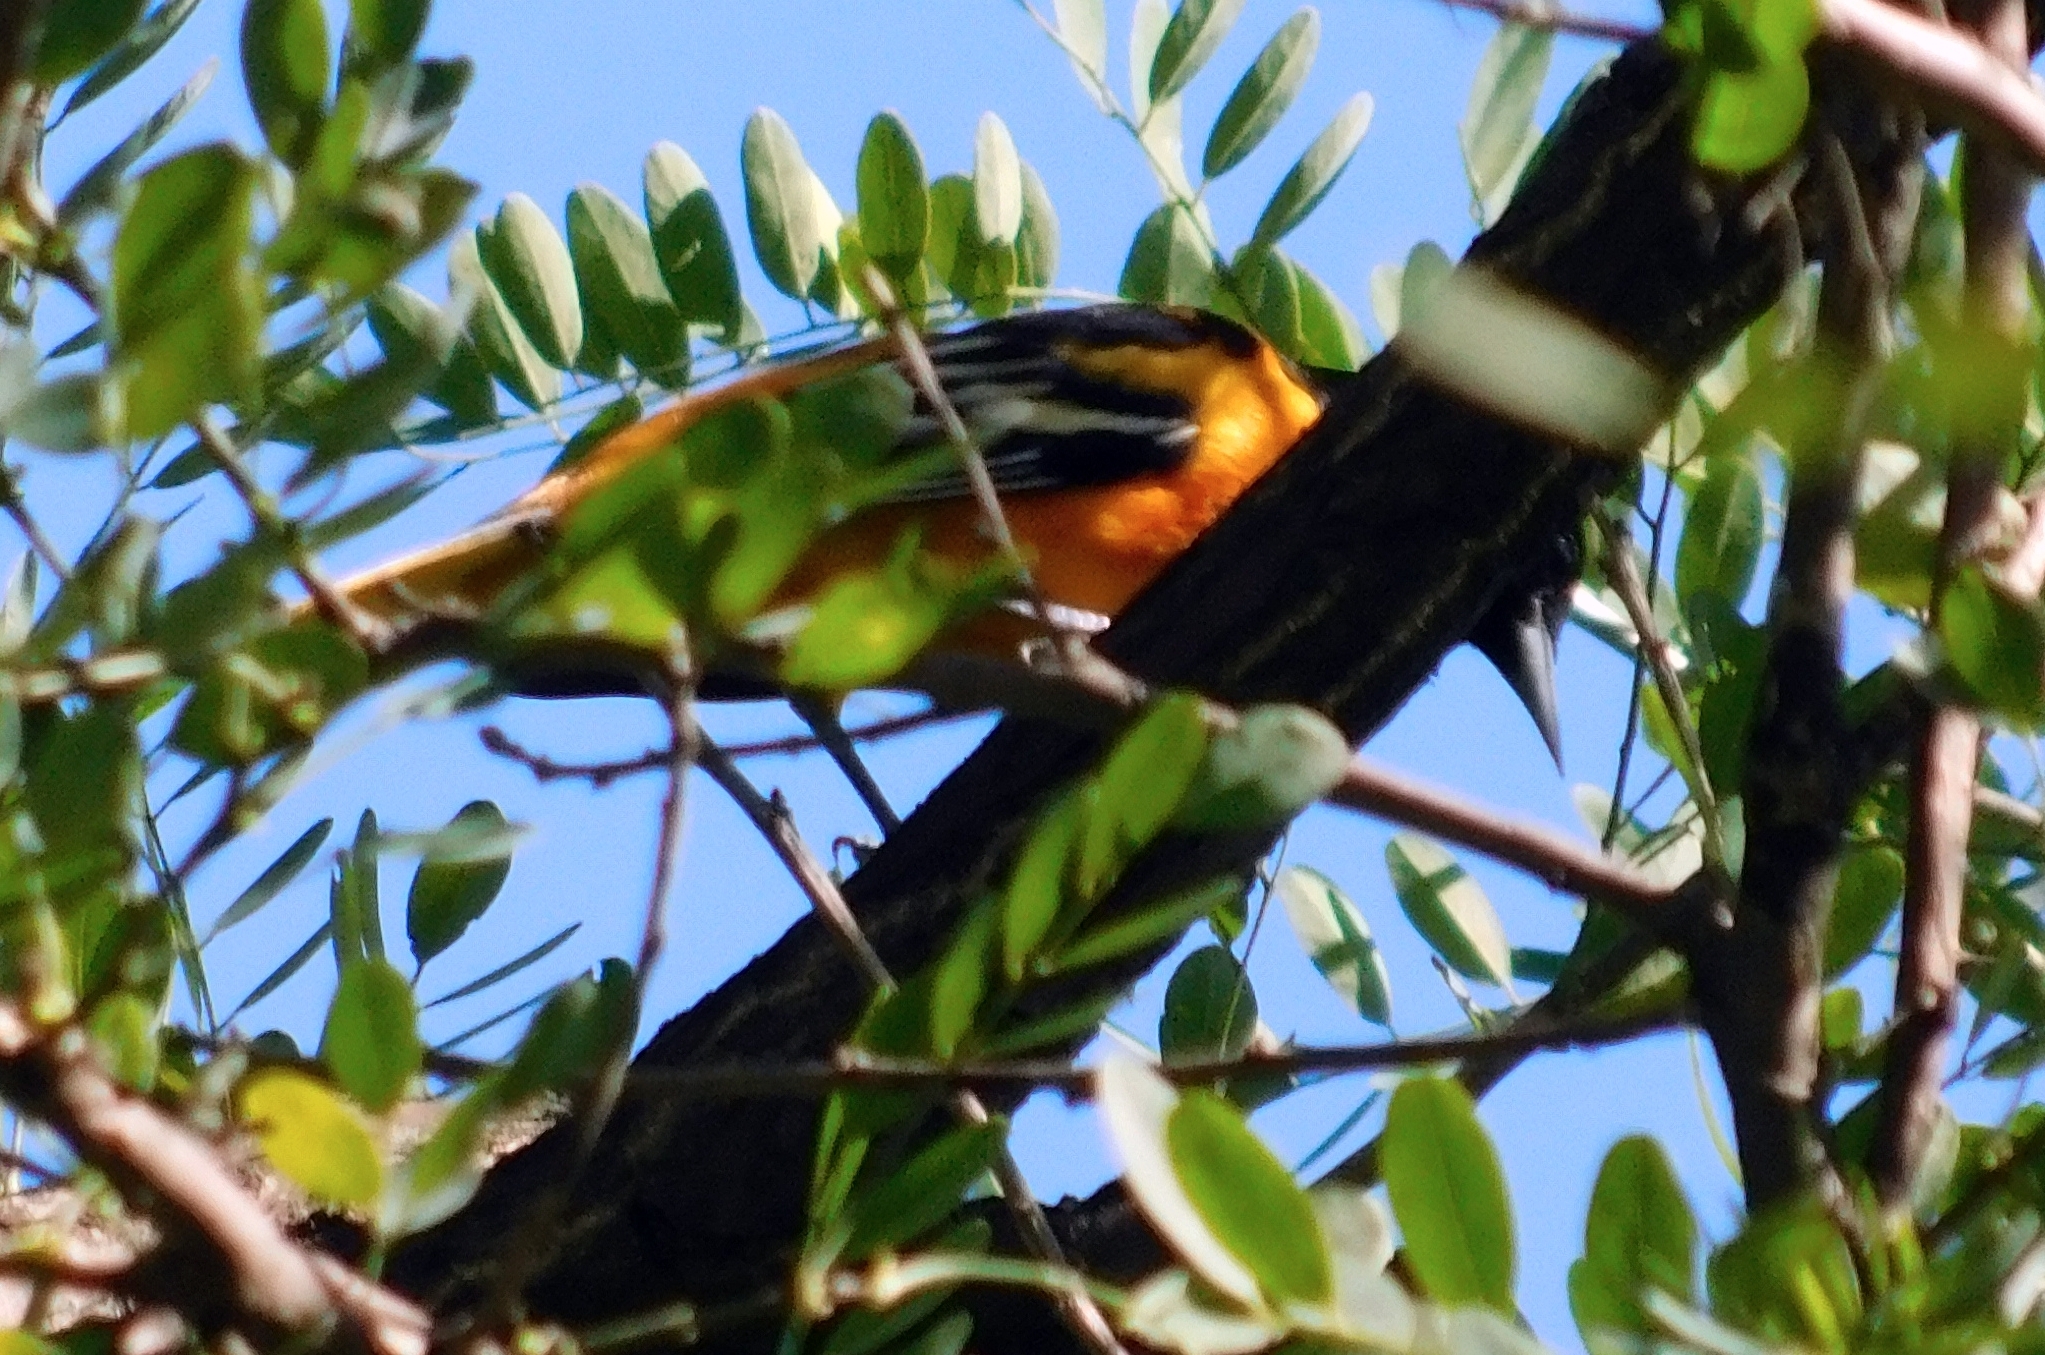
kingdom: Animalia
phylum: Chordata
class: Aves
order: Passeriformes
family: Icteridae
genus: Icterus
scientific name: Icterus galbula
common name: Baltimore oriole
